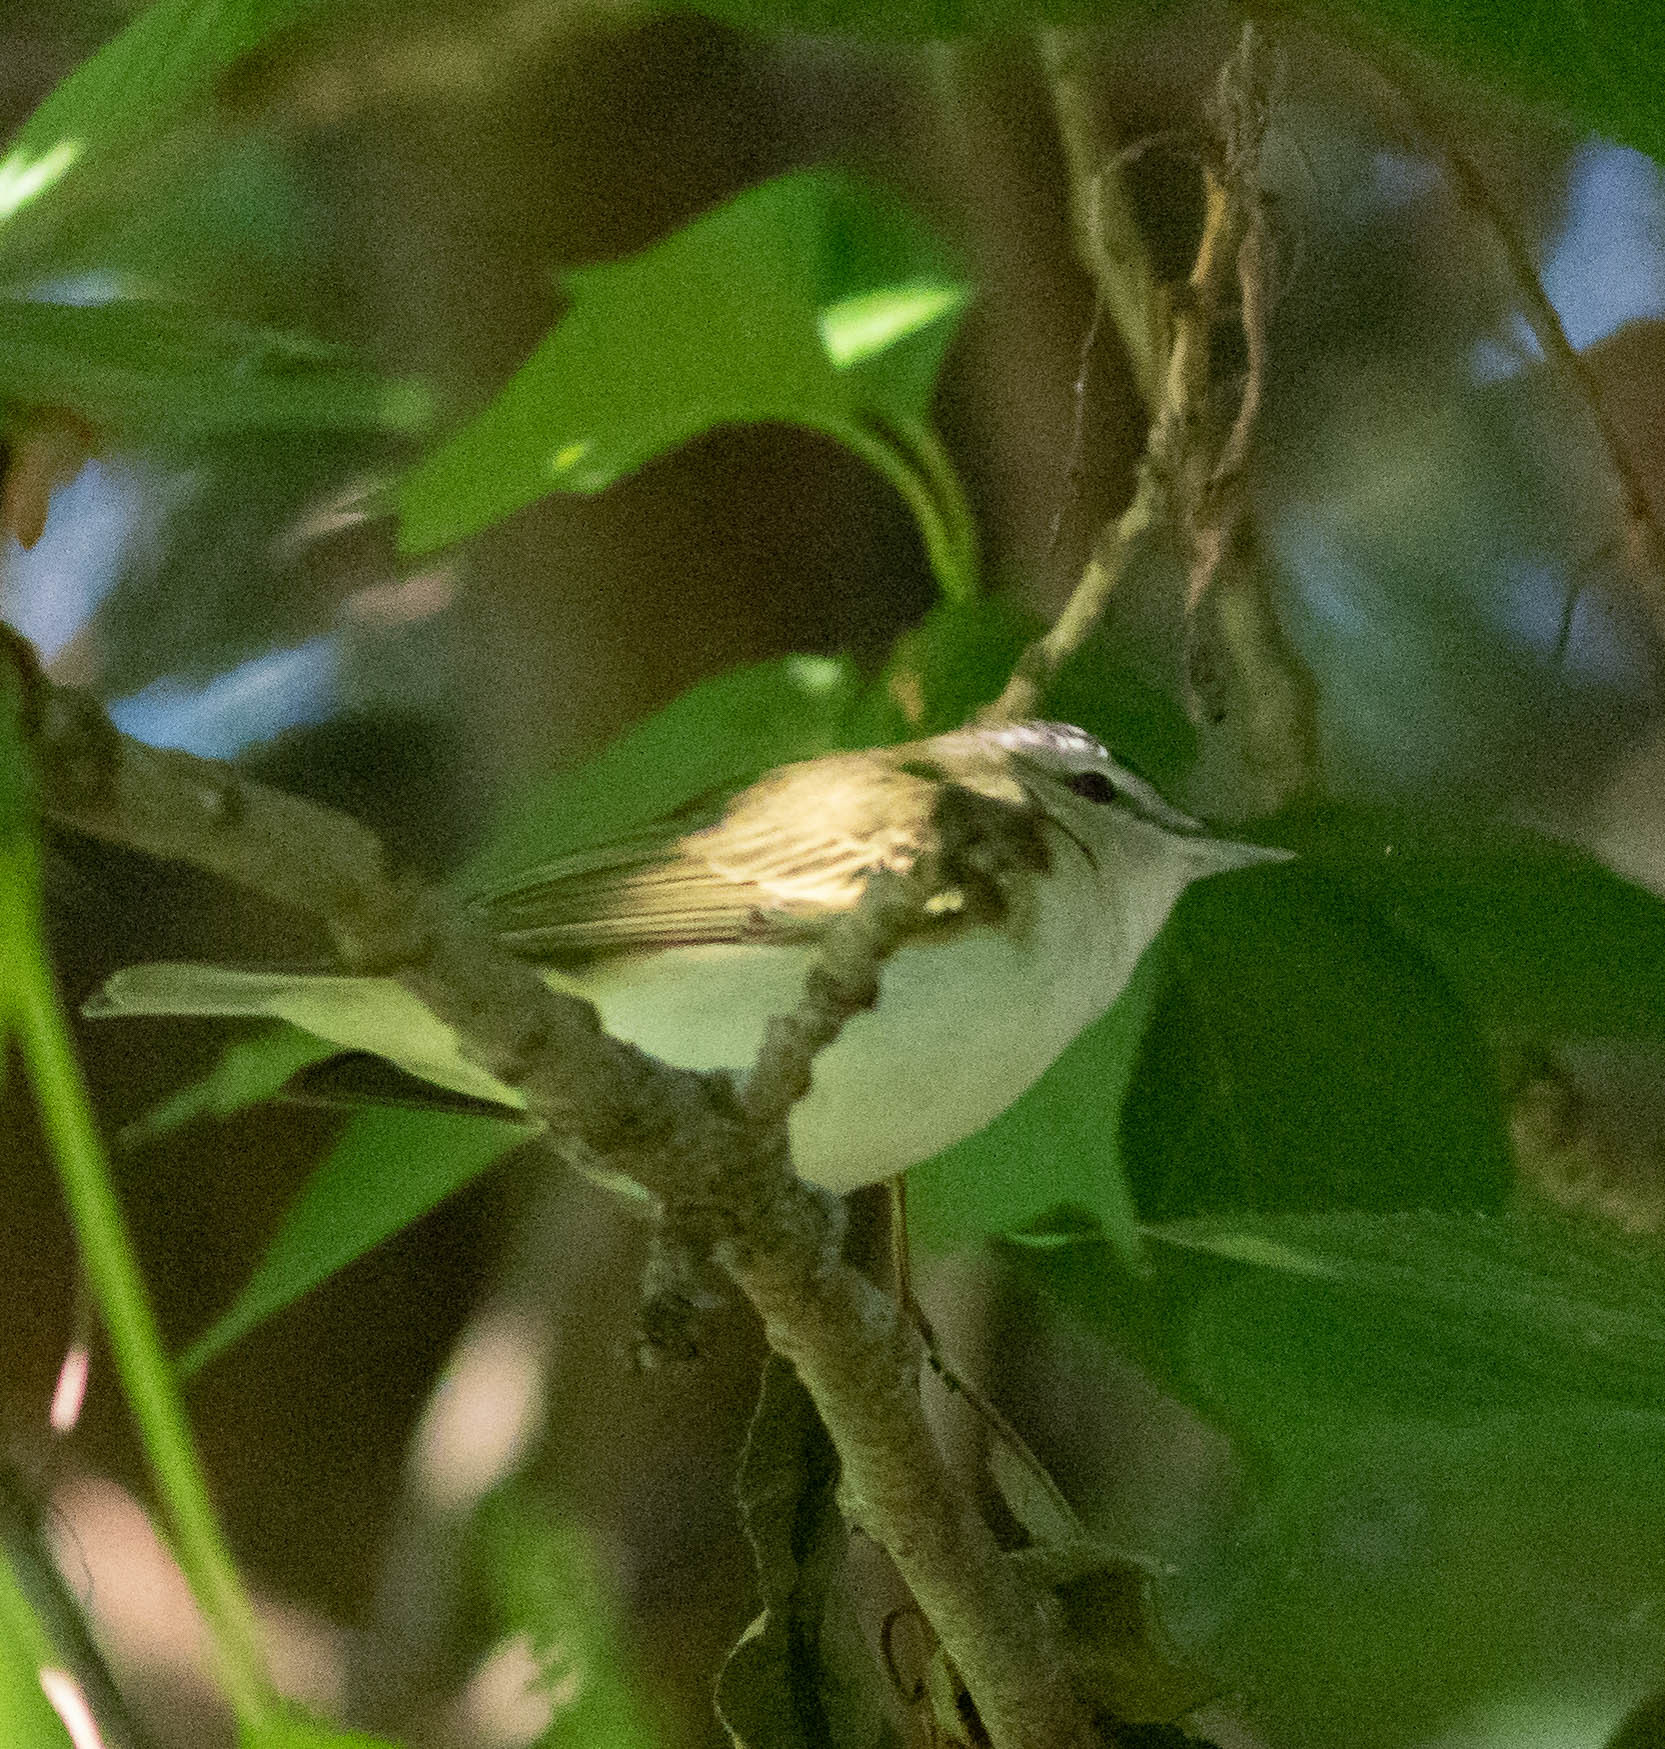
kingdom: Animalia
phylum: Chordata
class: Aves
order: Passeriformes
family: Vireonidae
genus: Vireo
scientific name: Vireo olivaceus
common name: Red-eyed vireo
